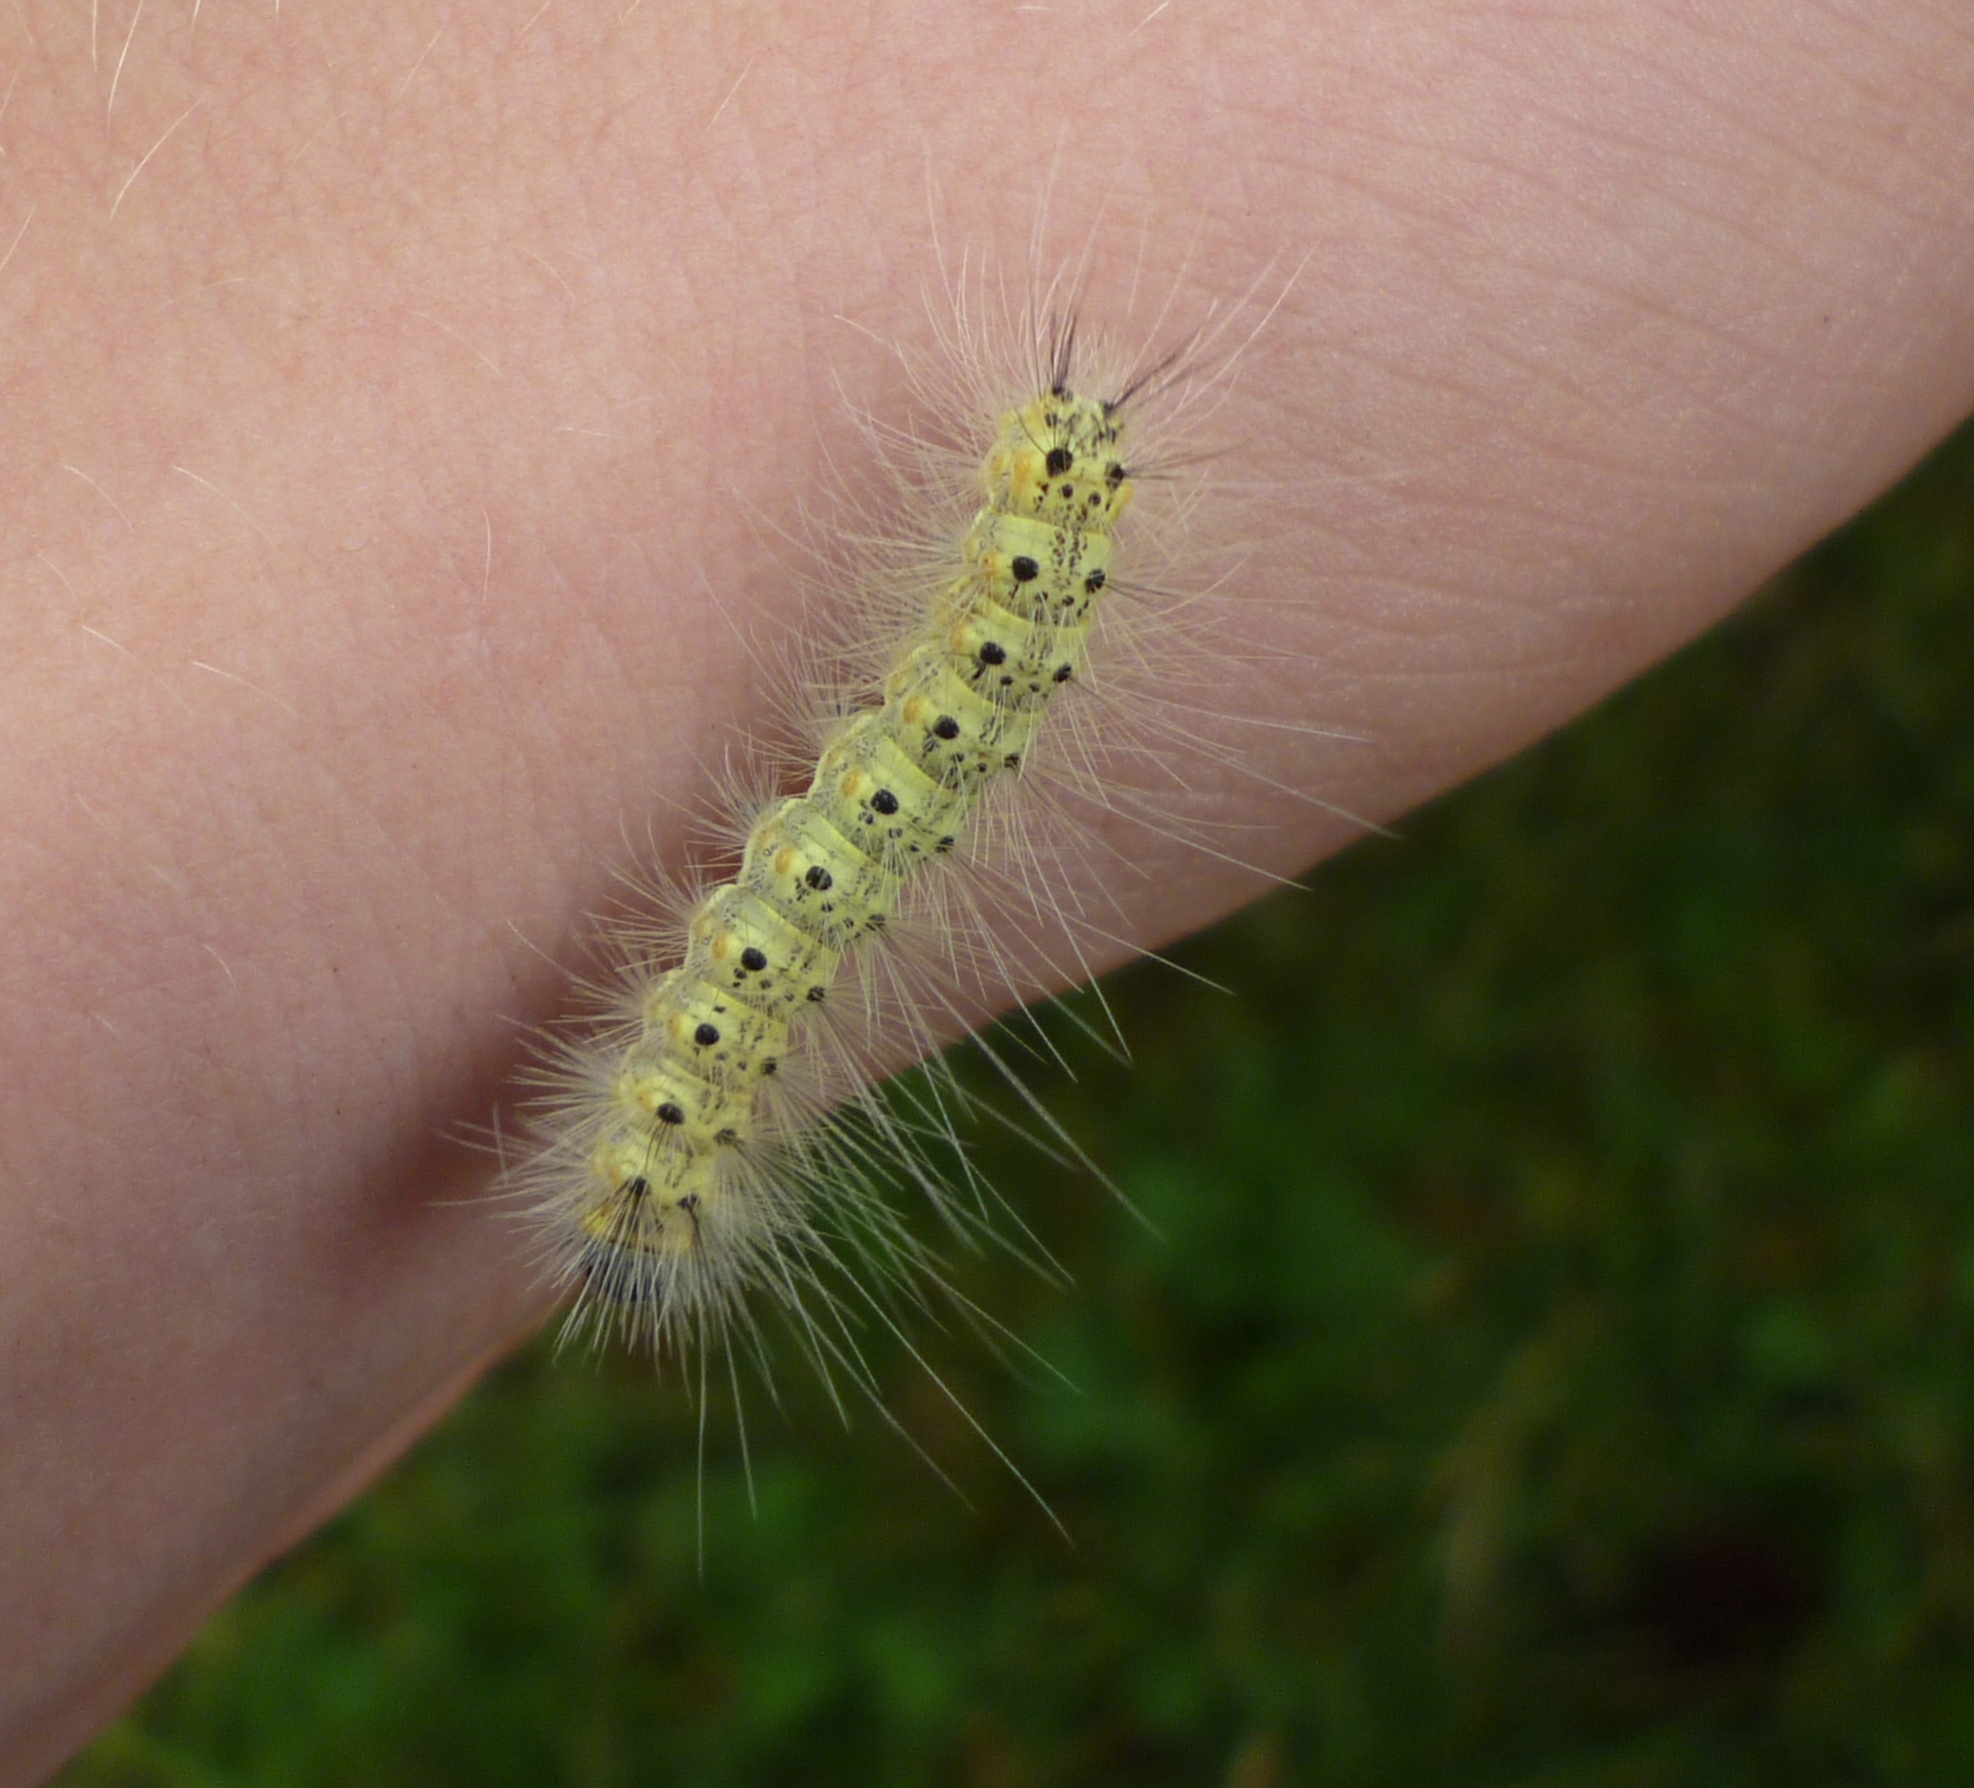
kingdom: Animalia
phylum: Arthropoda
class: Insecta
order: Lepidoptera
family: Erebidae
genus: Hyphantria
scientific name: Hyphantria cunea
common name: American white moth
